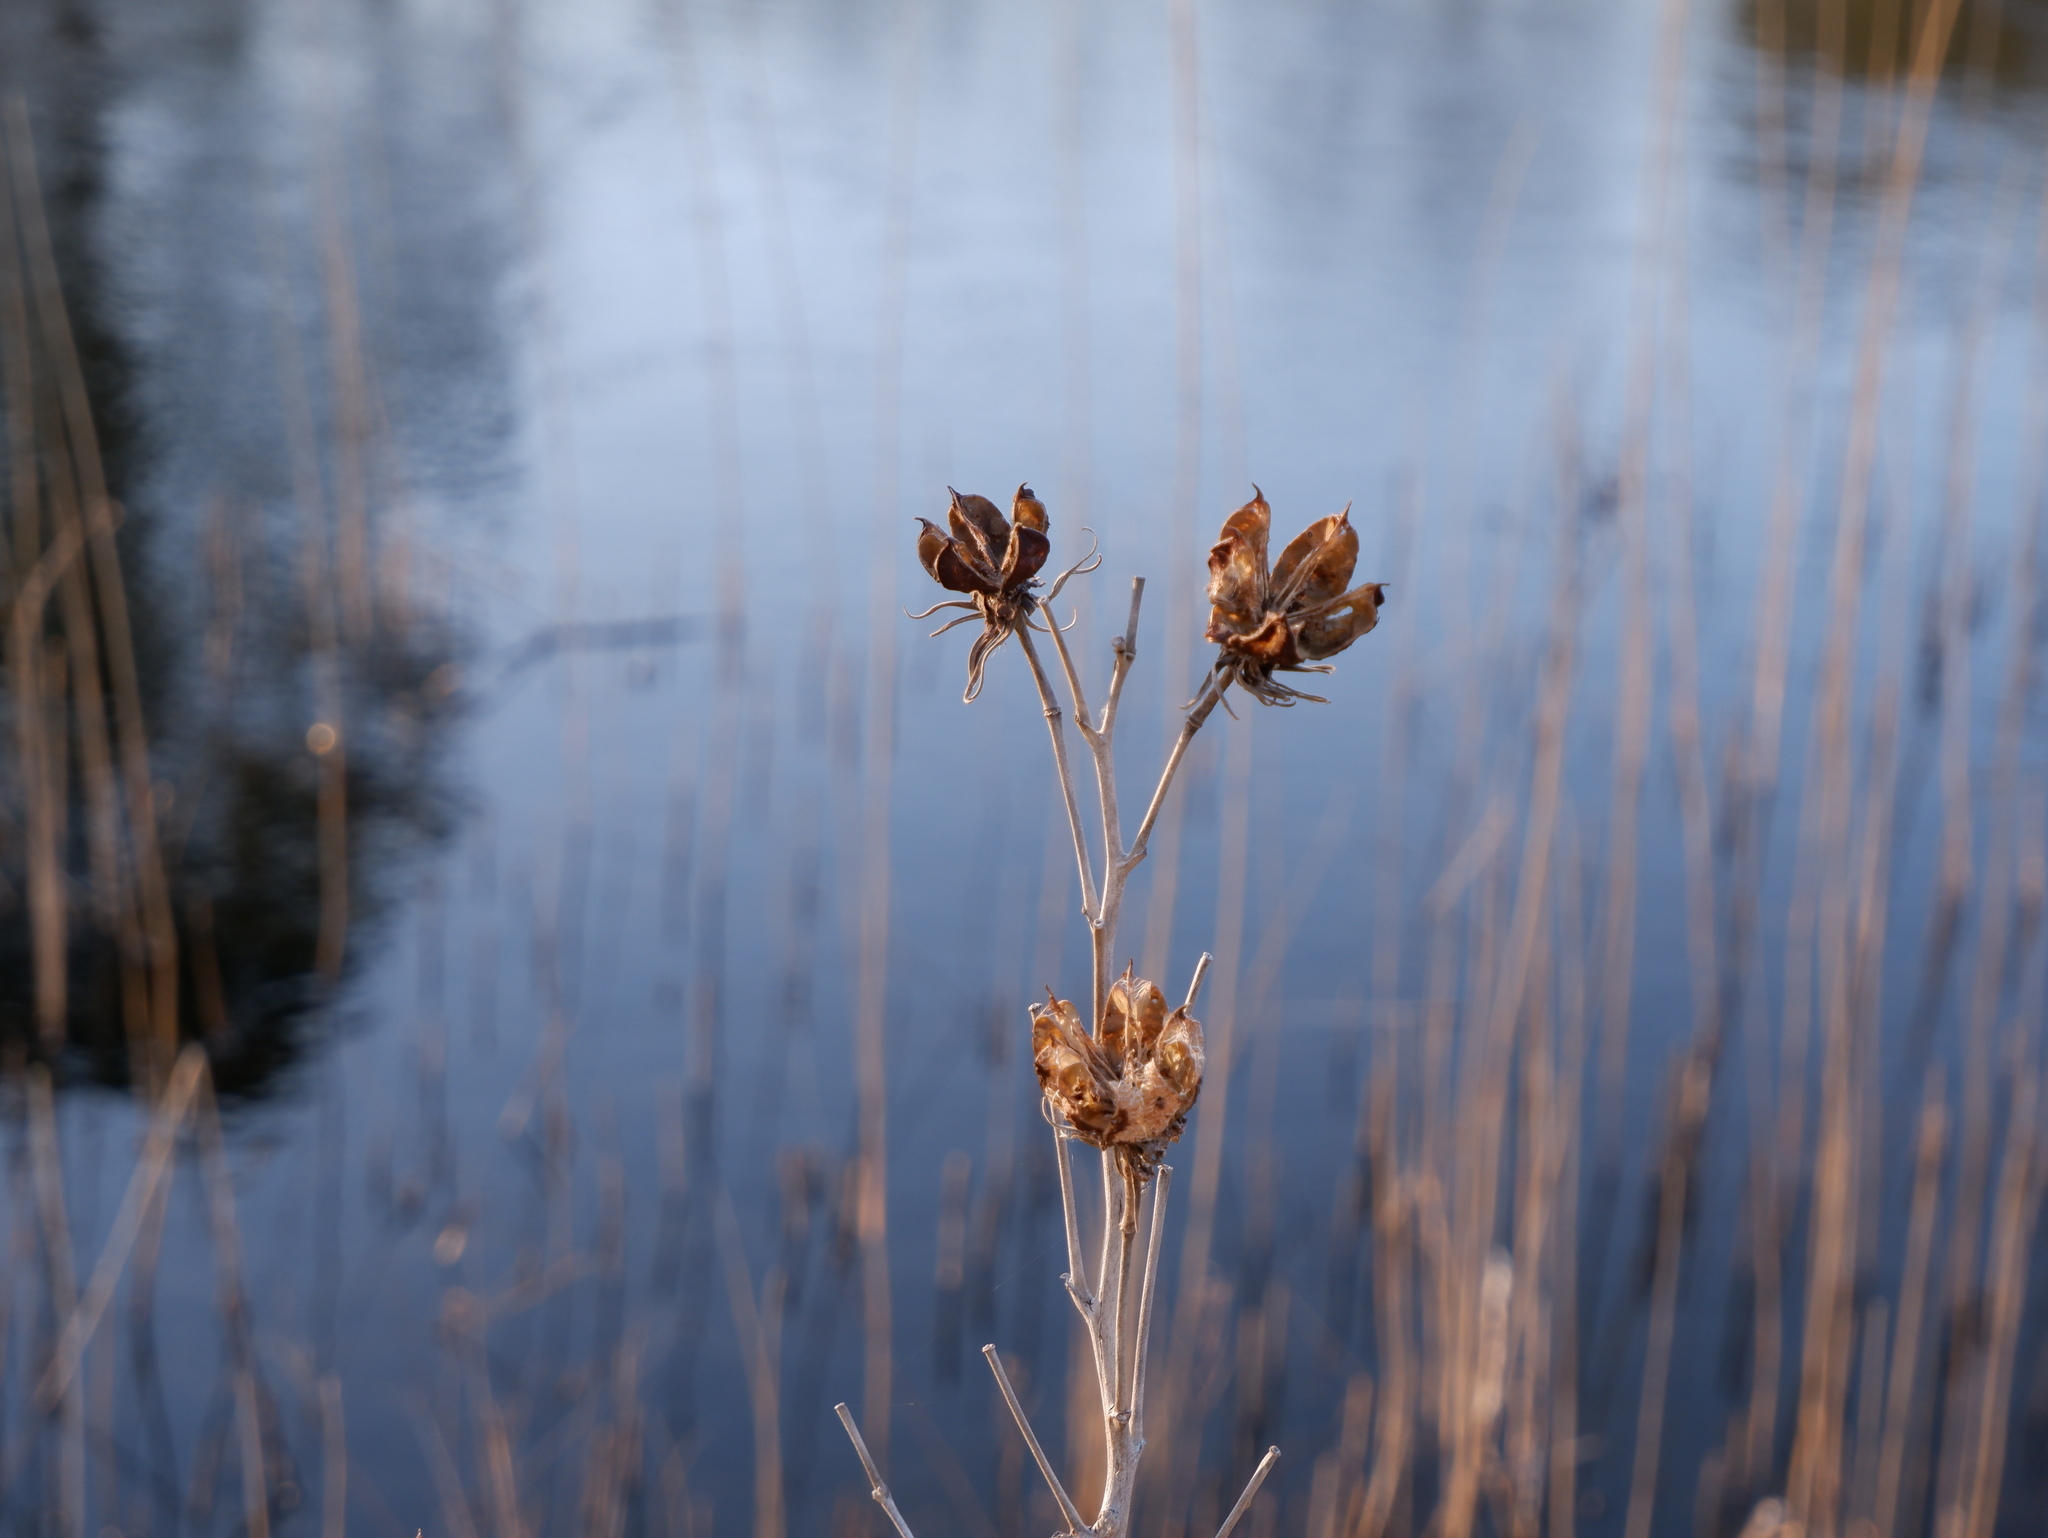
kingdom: Plantae
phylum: Tracheophyta
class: Magnoliopsida
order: Malvales
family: Malvaceae
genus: Hibiscus
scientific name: Hibiscus moscheutos
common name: Common rose-mallow
